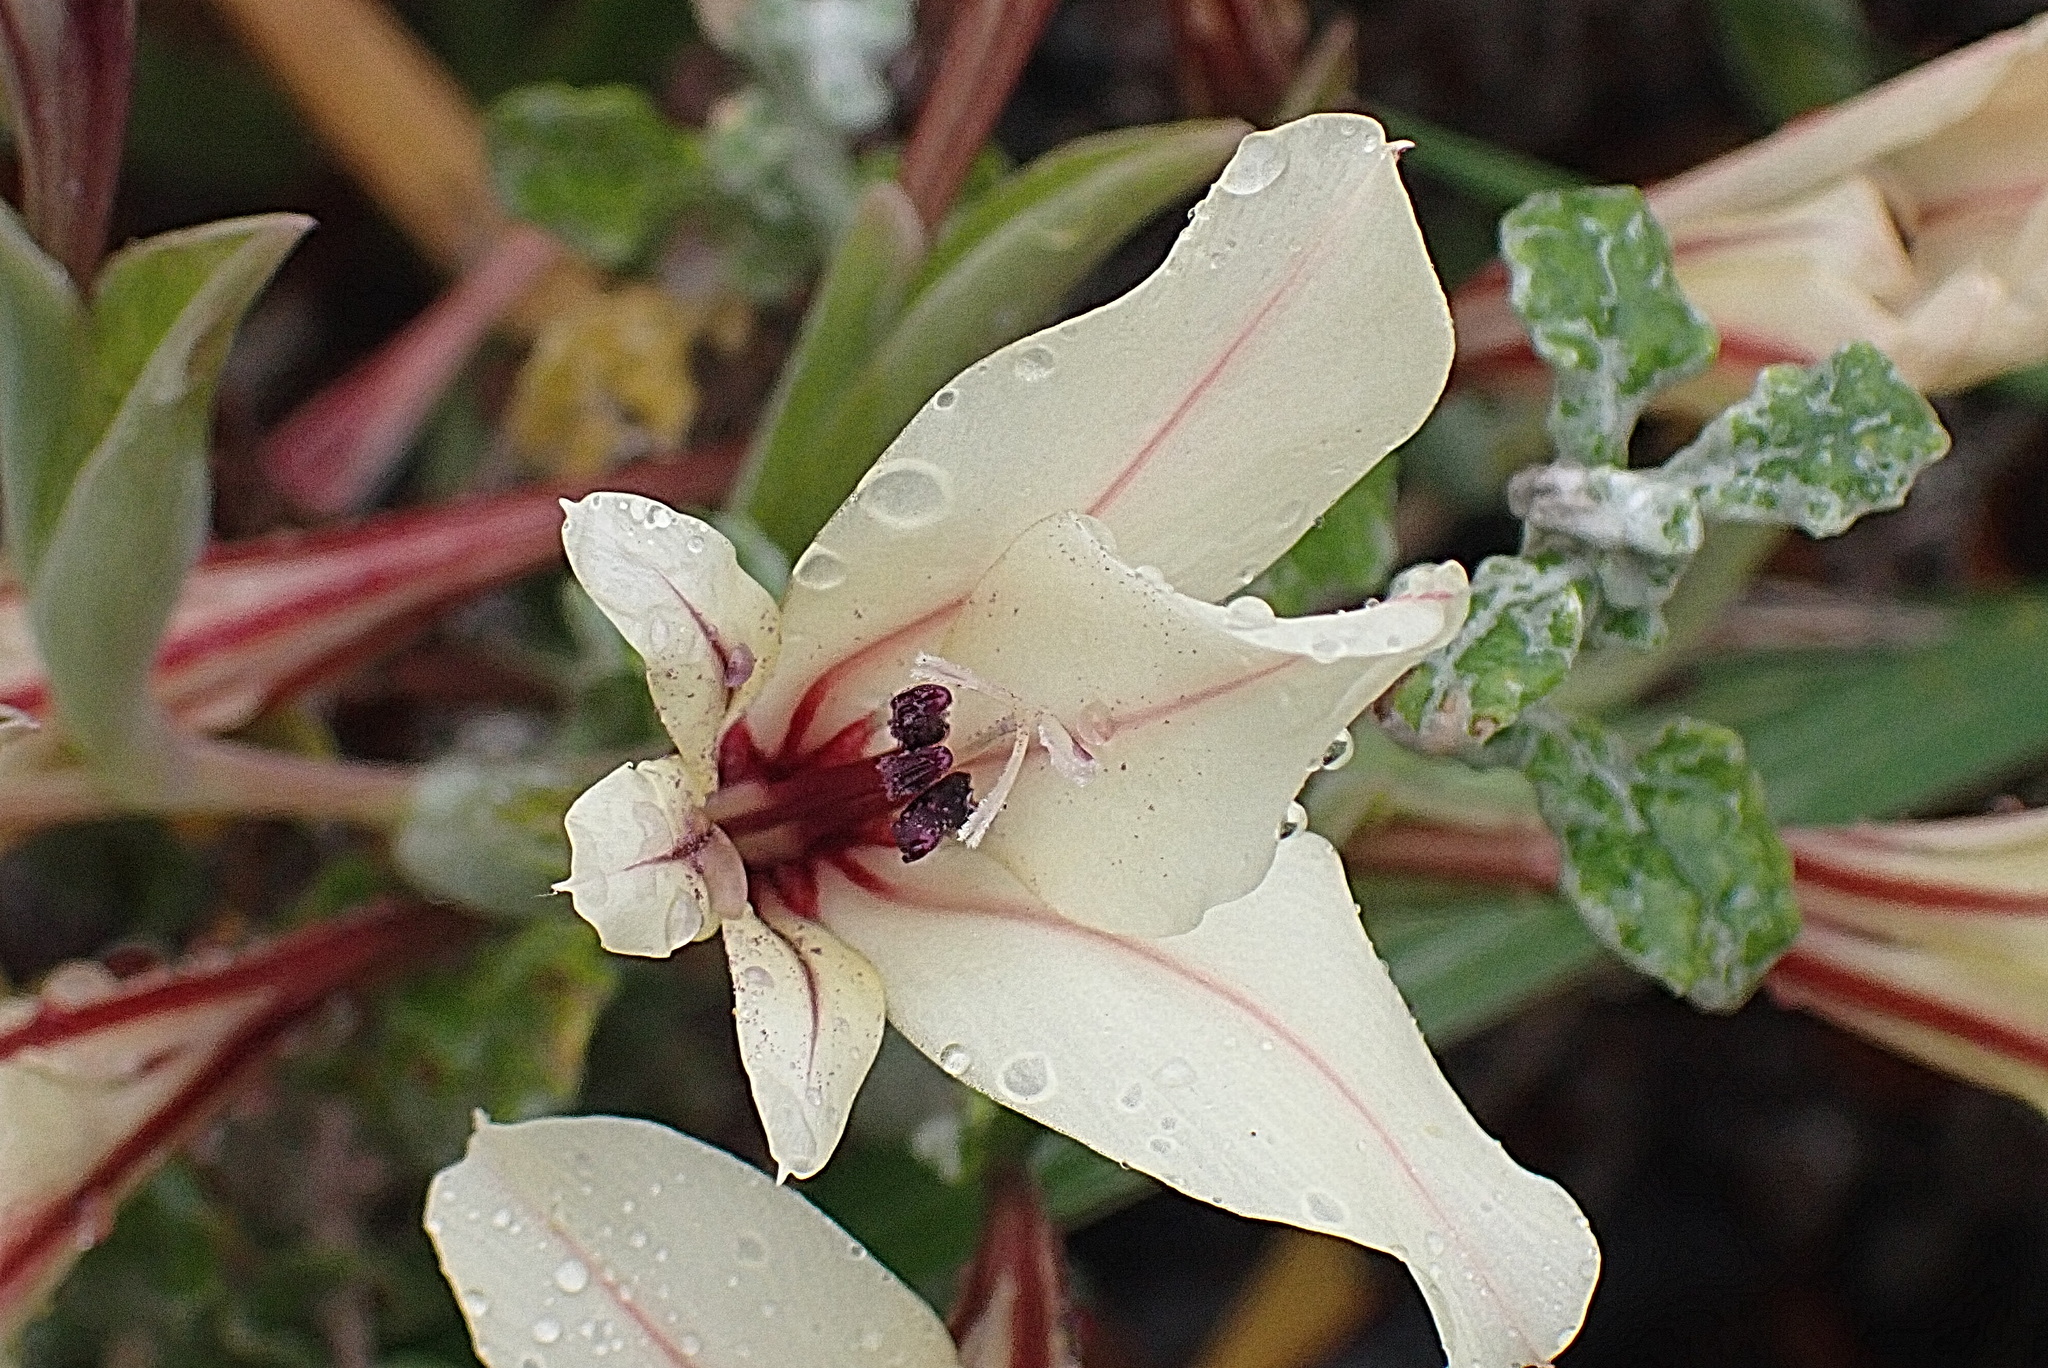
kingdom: Plantae
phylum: Tracheophyta
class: Liliopsida
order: Asparagales
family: Iridaceae
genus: Gladiolus
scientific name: Gladiolus floribundus
